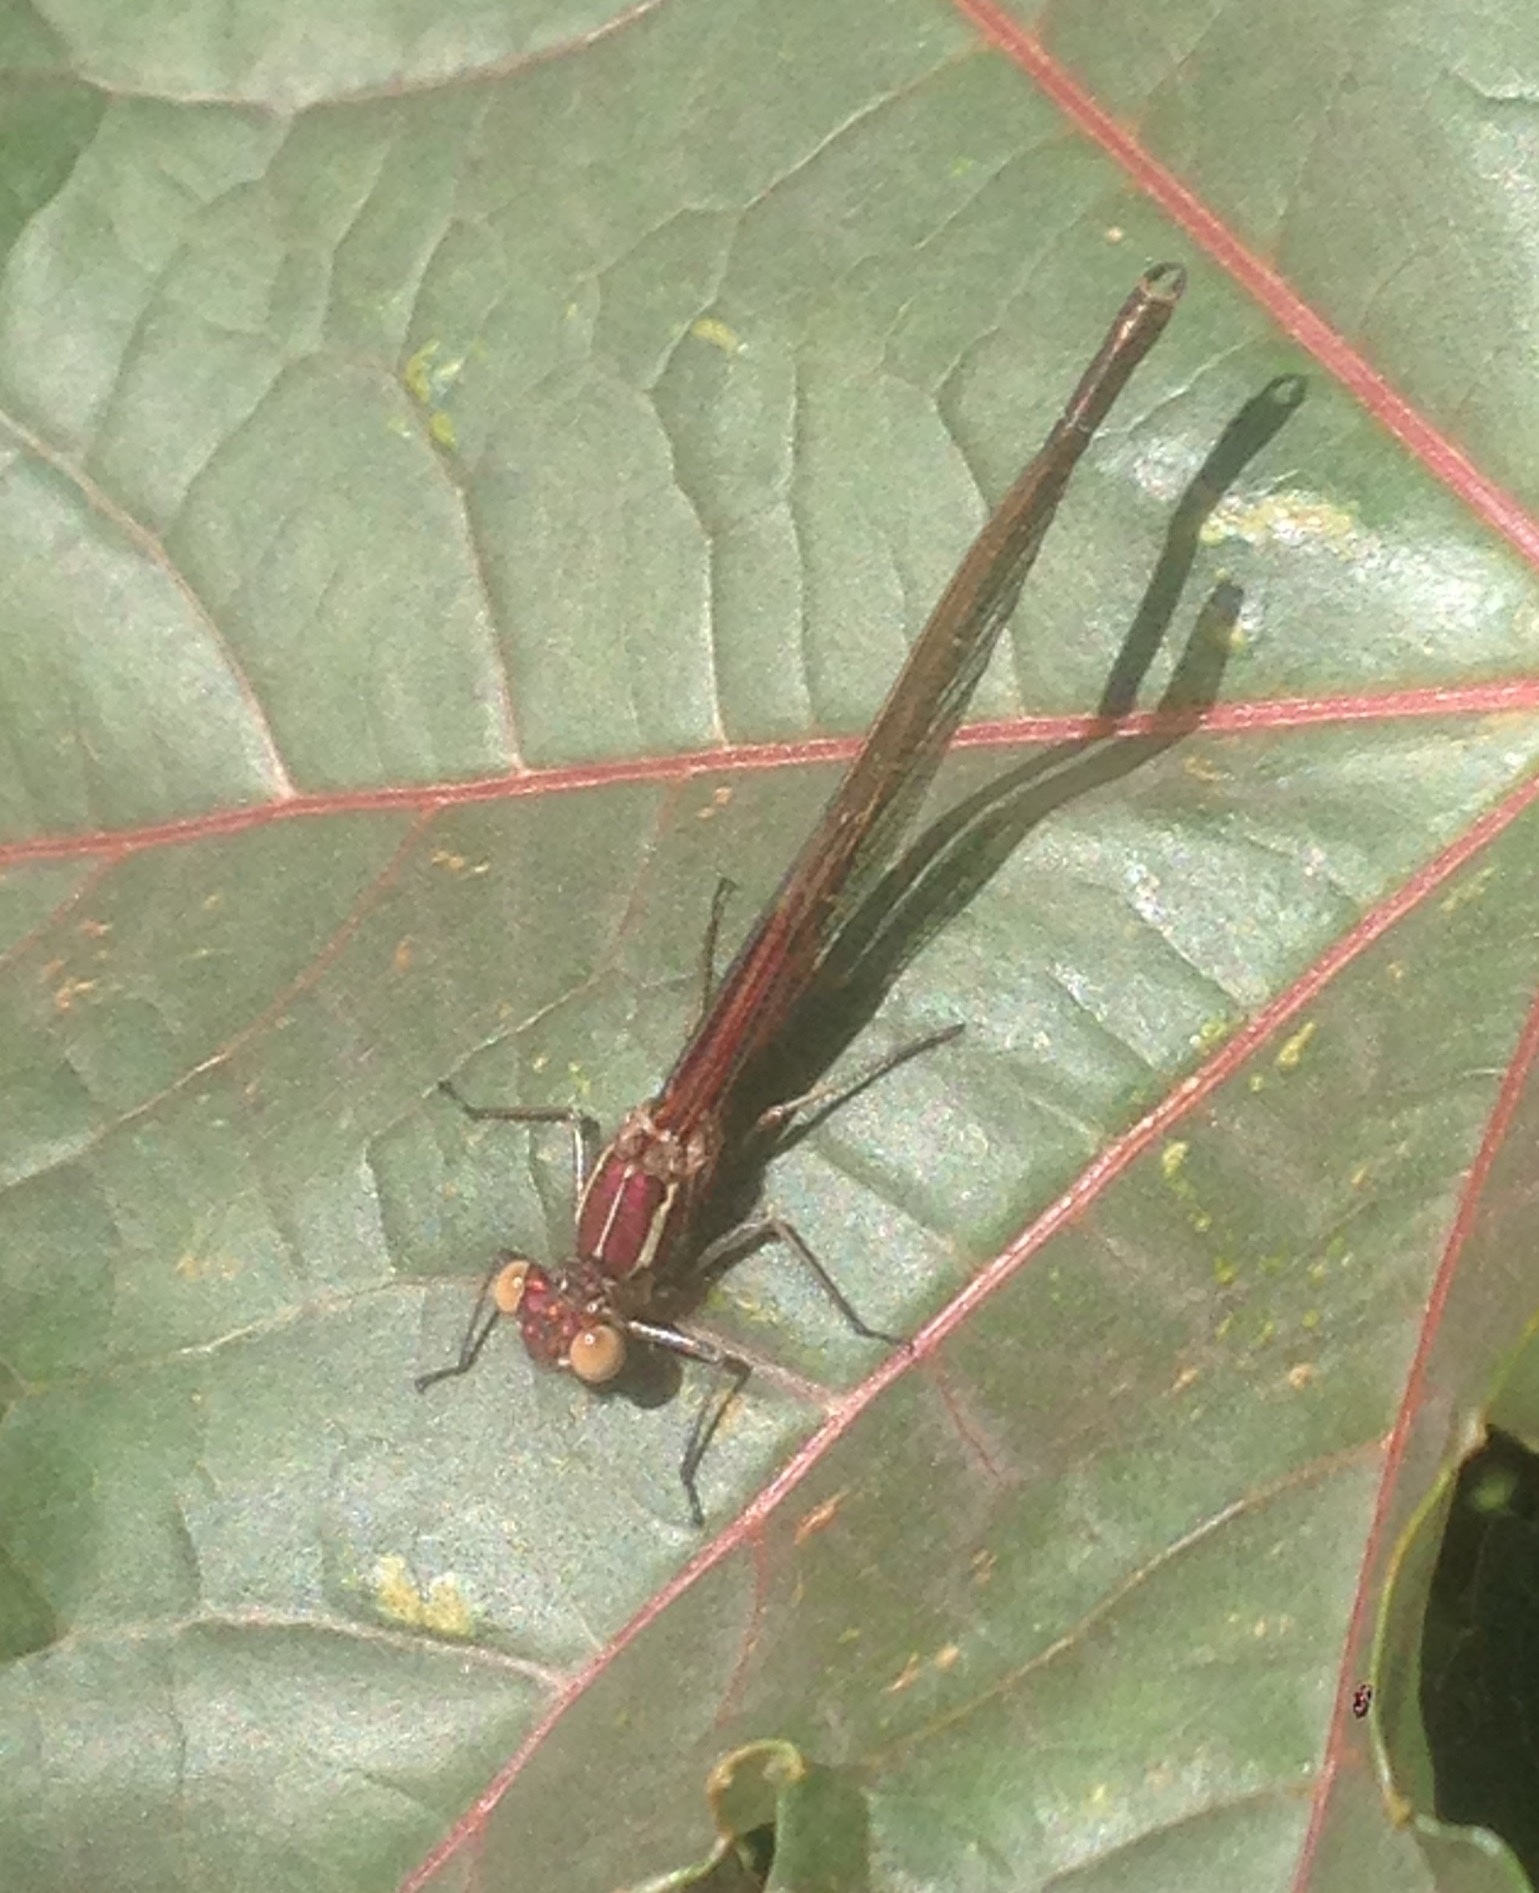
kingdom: Animalia
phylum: Arthropoda
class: Insecta
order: Odonata
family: Calopterygidae
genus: Hetaerina
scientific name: Hetaerina americana
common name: American rubyspot
